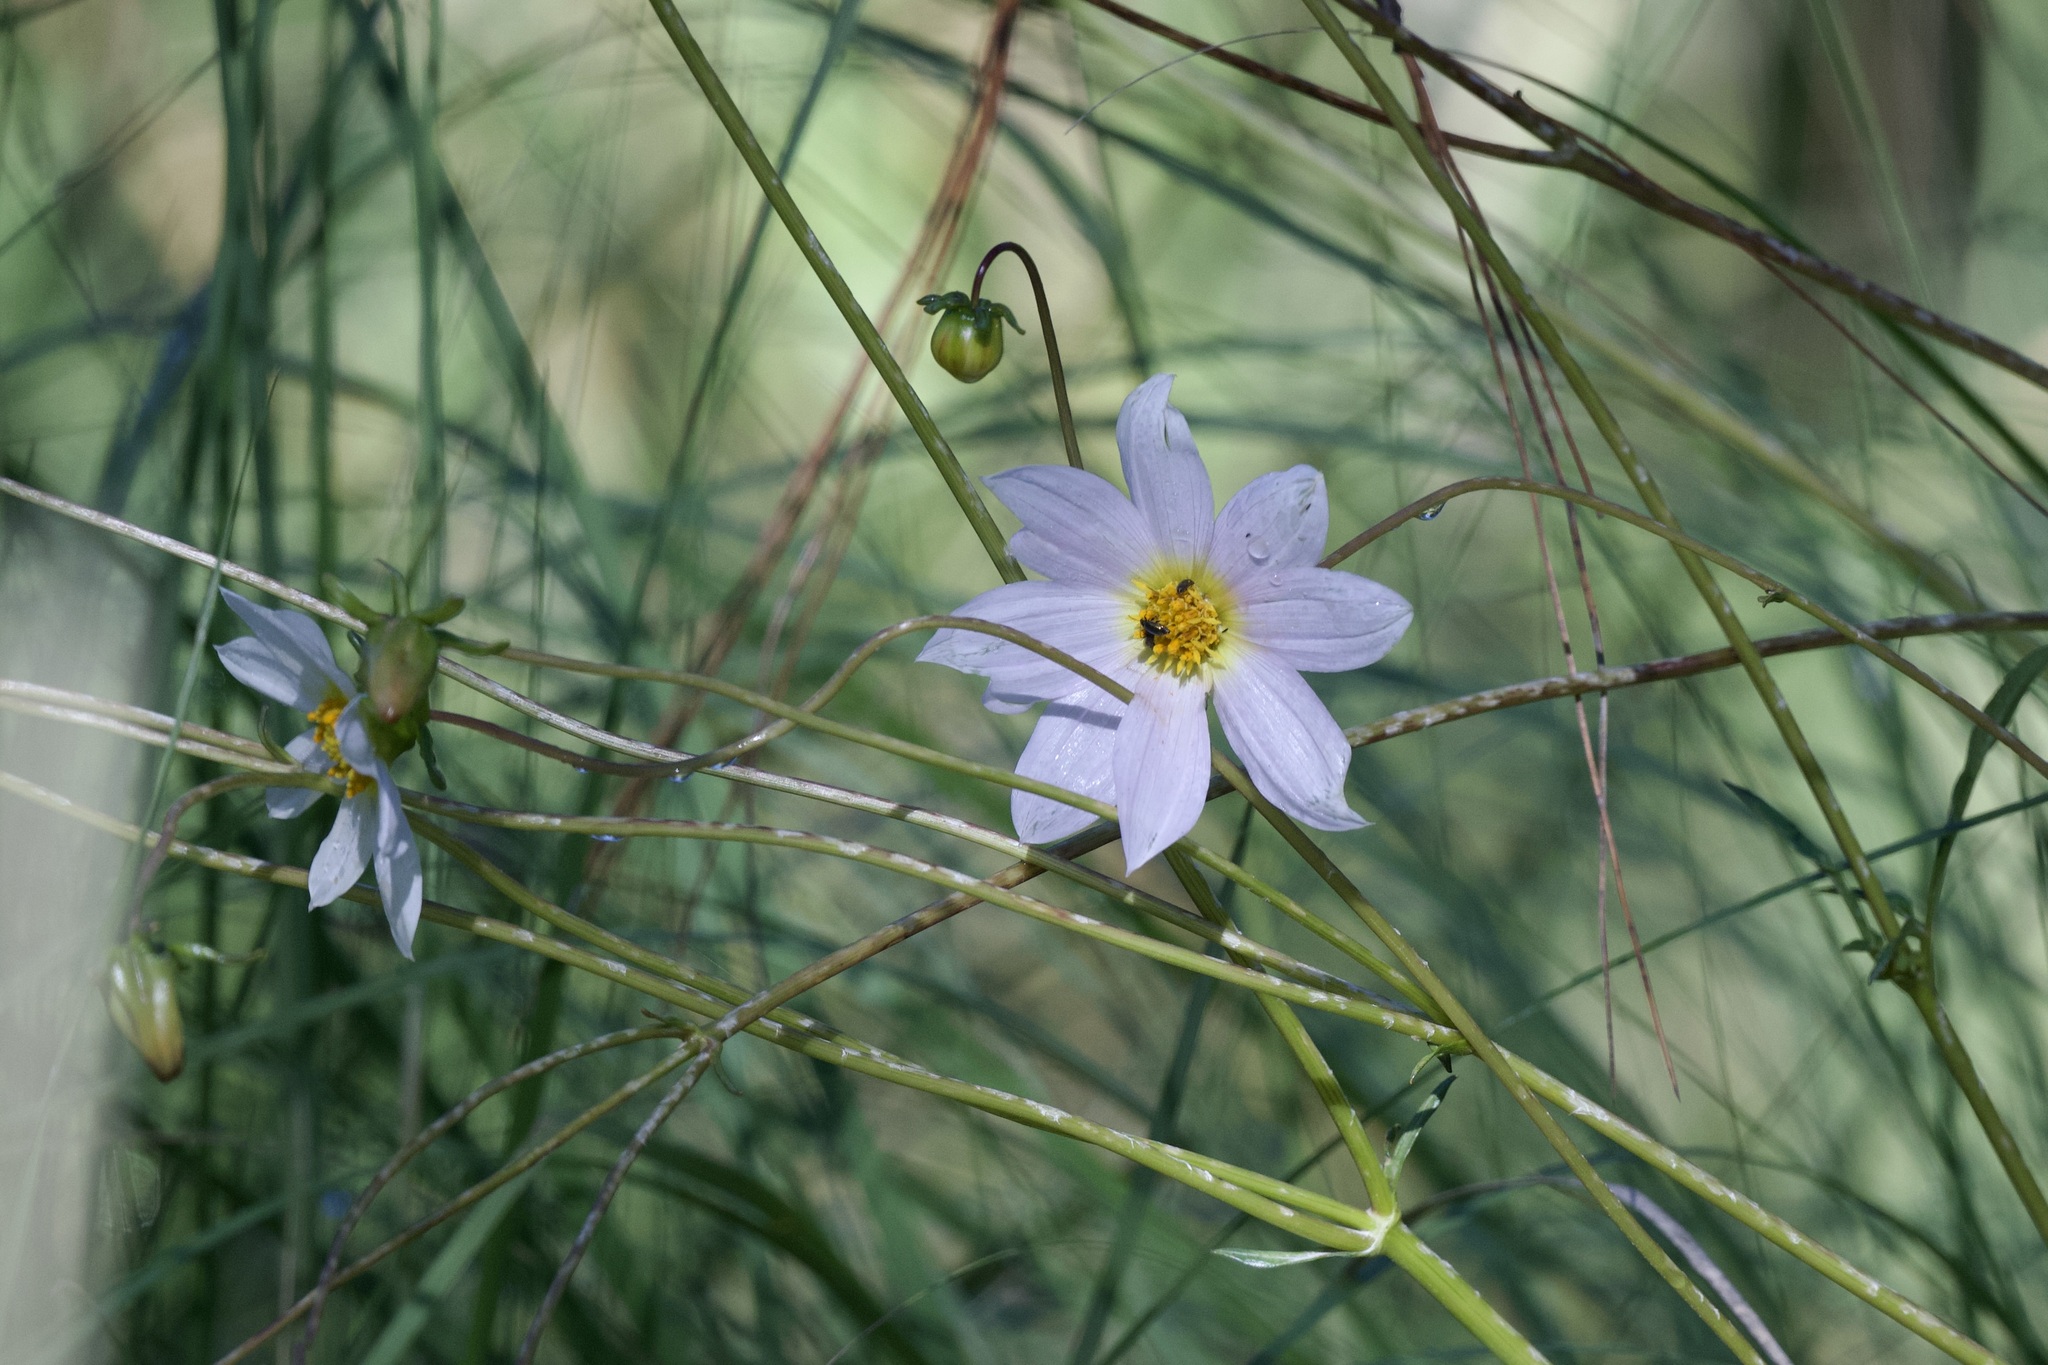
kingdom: Plantae
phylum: Tracheophyta
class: Magnoliopsida
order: Asterales
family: Asteraceae
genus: Dahlia
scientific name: Dahlia merckii
